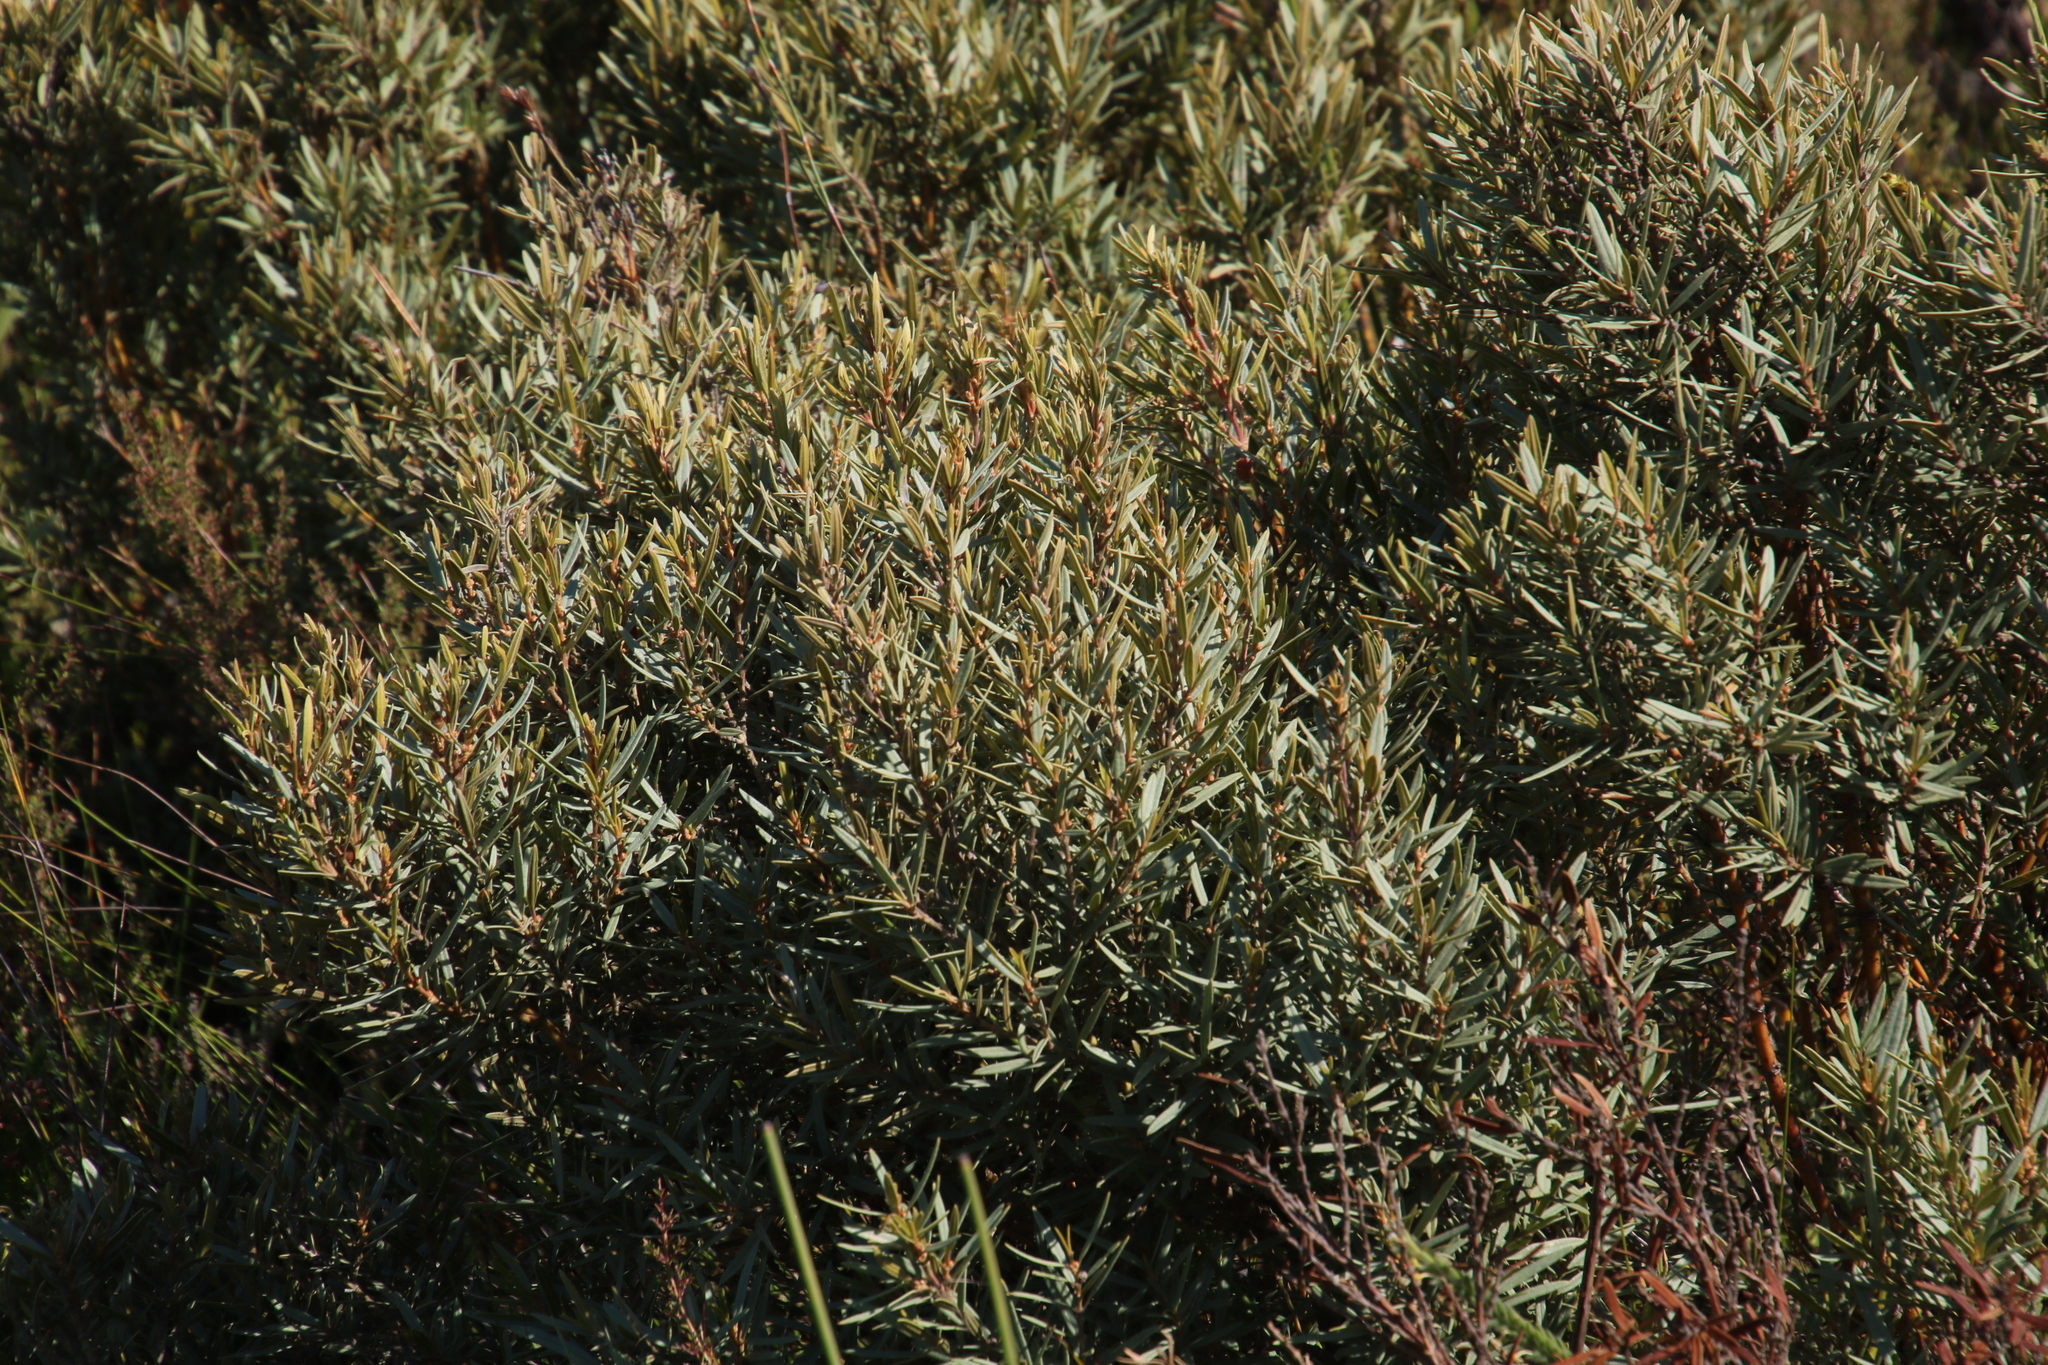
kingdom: Plantae
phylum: Tracheophyta
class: Magnoliopsida
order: Cornales
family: Grubbiaceae
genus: Grubbia
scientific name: Grubbia tomentosa
